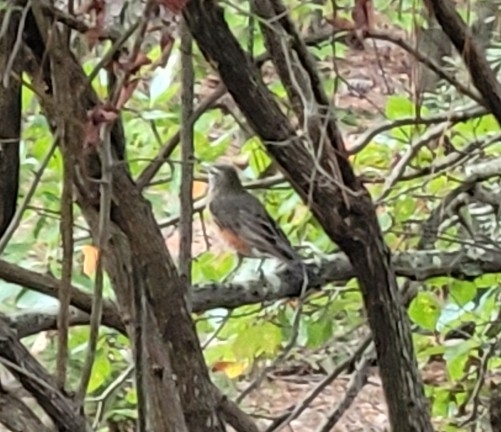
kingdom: Animalia
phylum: Chordata
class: Aves
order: Passeriformes
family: Turdidae
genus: Turdus
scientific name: Turdus migratorius
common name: American robin
